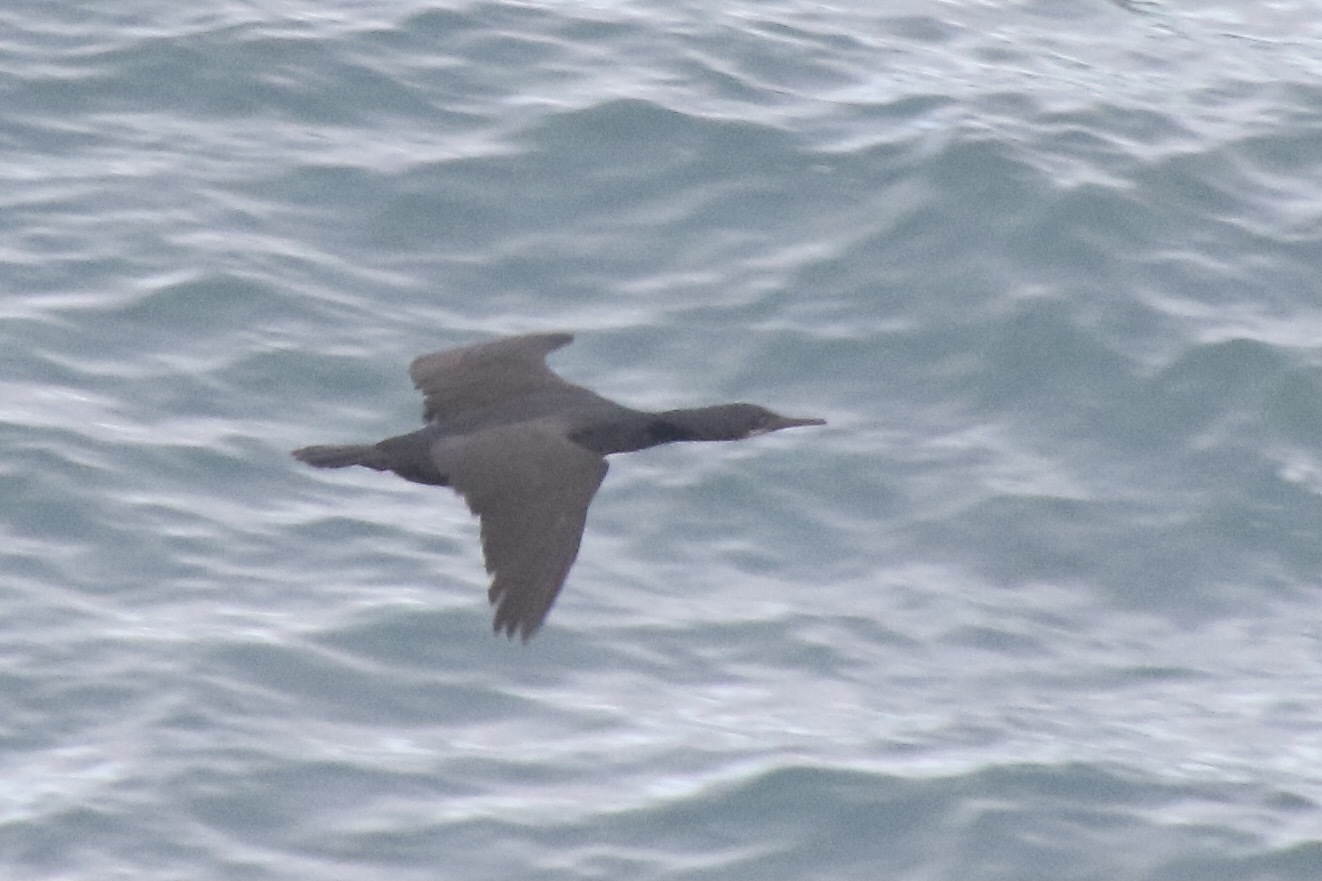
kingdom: Animalia
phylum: Chordata
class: Aves
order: Suliformes
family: Phalacrocoracidae
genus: Urile
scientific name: Urile penicillatus
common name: Brandt's cormorant
